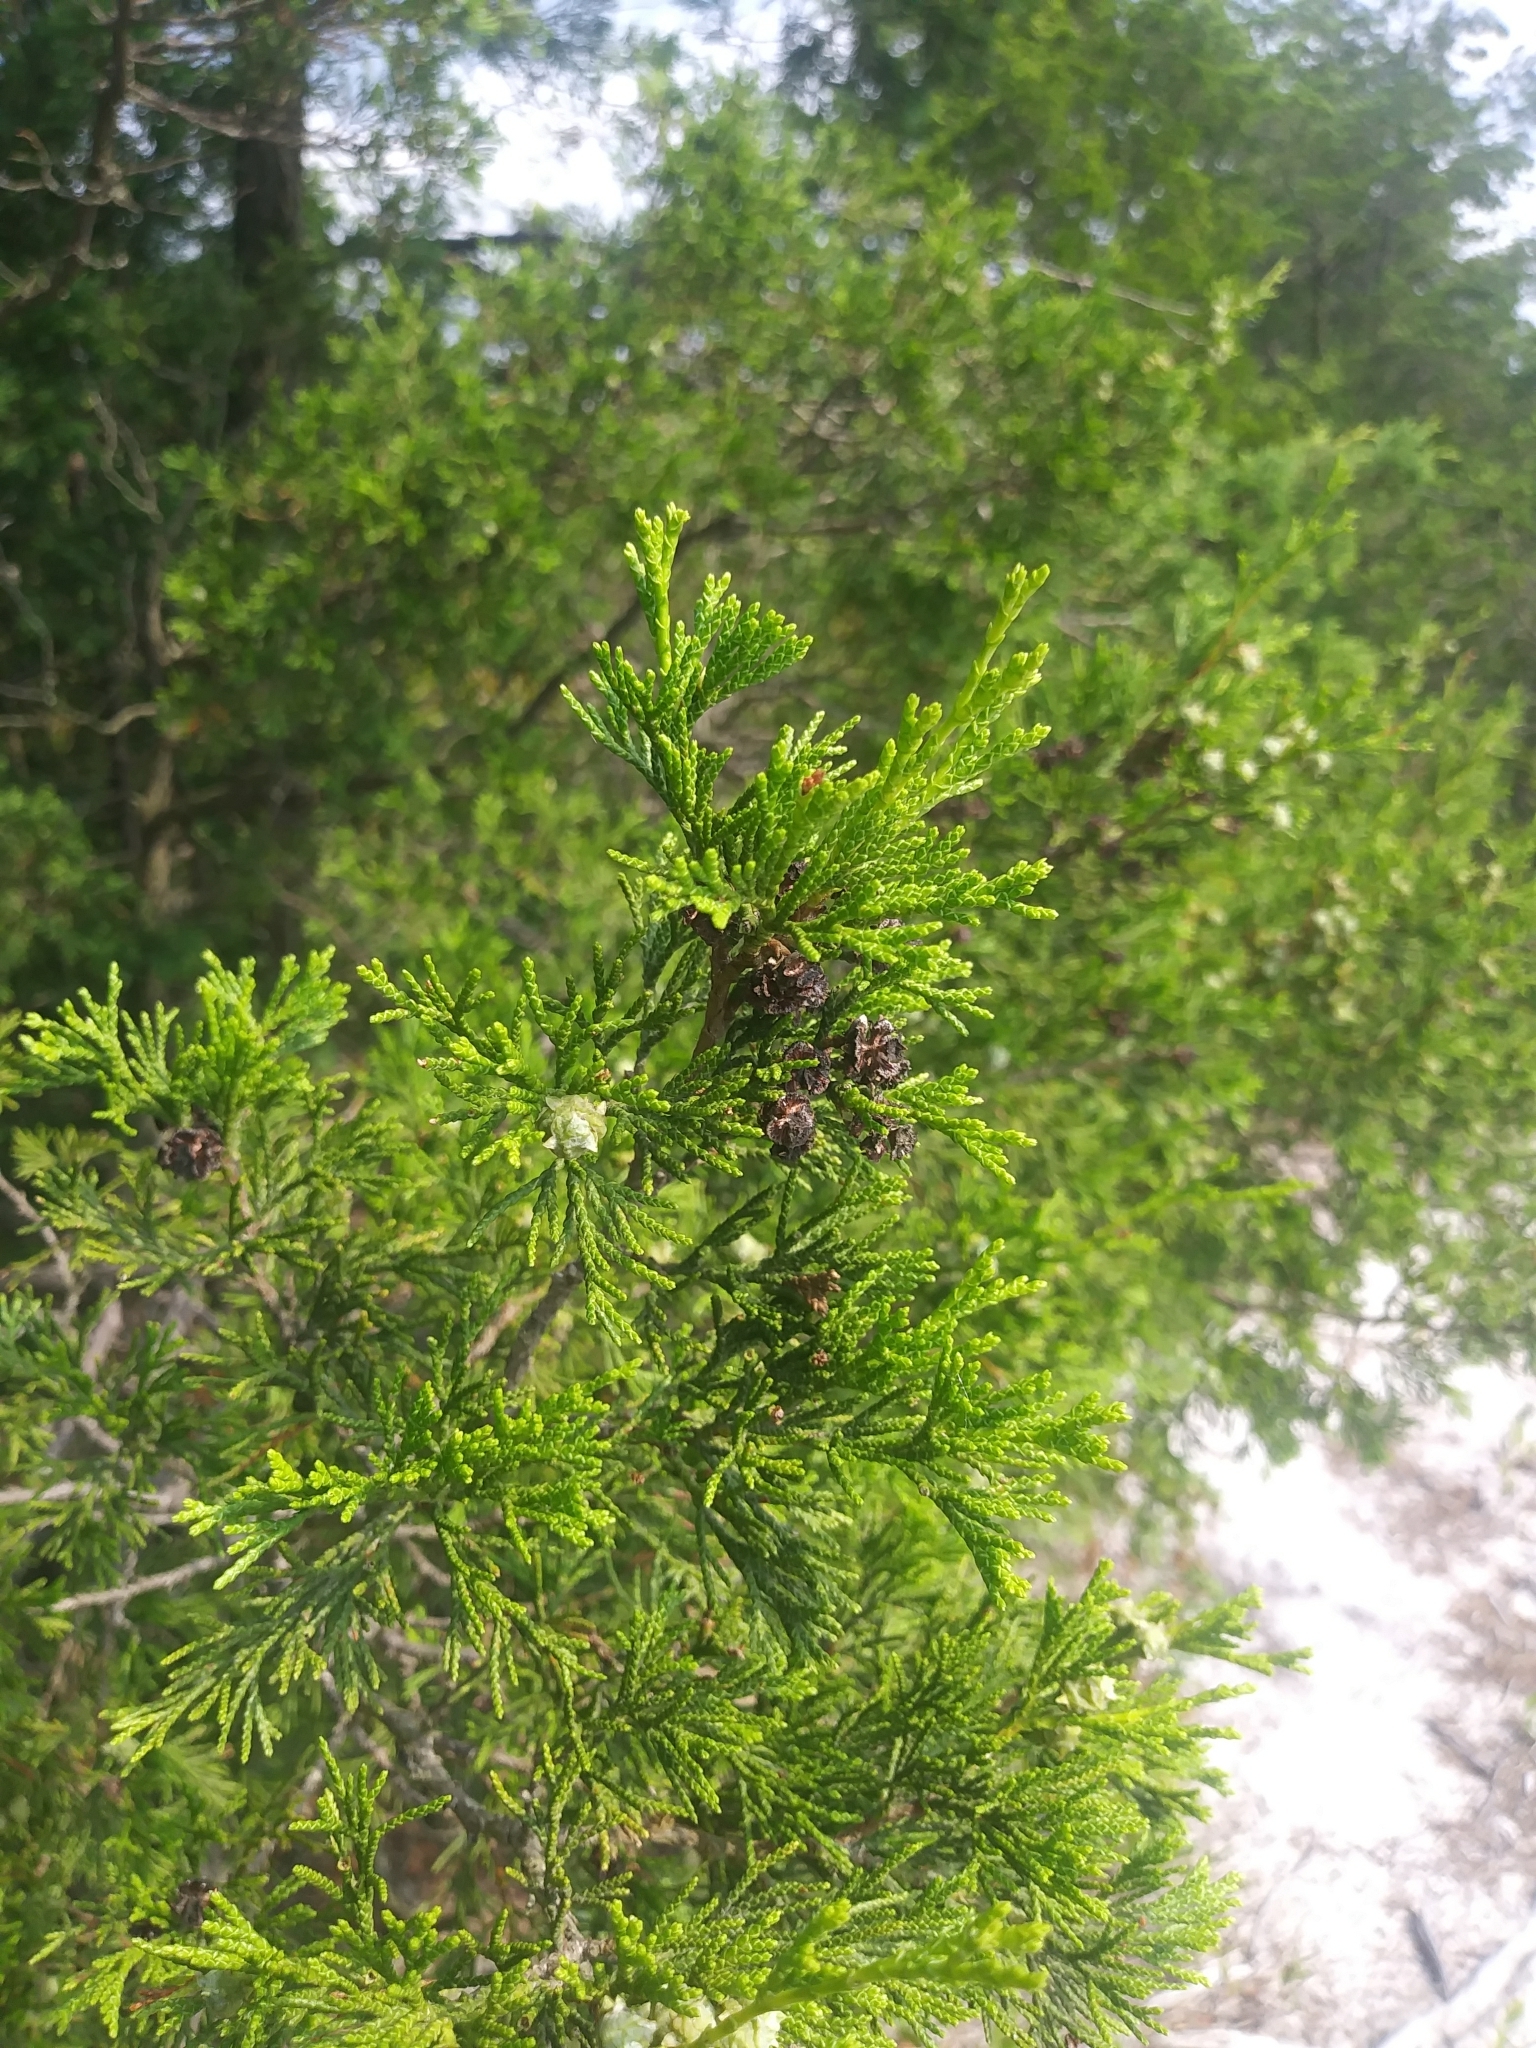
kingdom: Plantae
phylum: Tracheophyta
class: Pinopsida
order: Pinales
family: Cupressaceae
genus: Chamaecyparis
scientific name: Chamaecyparis thyoides
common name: Atlantic white cedar
